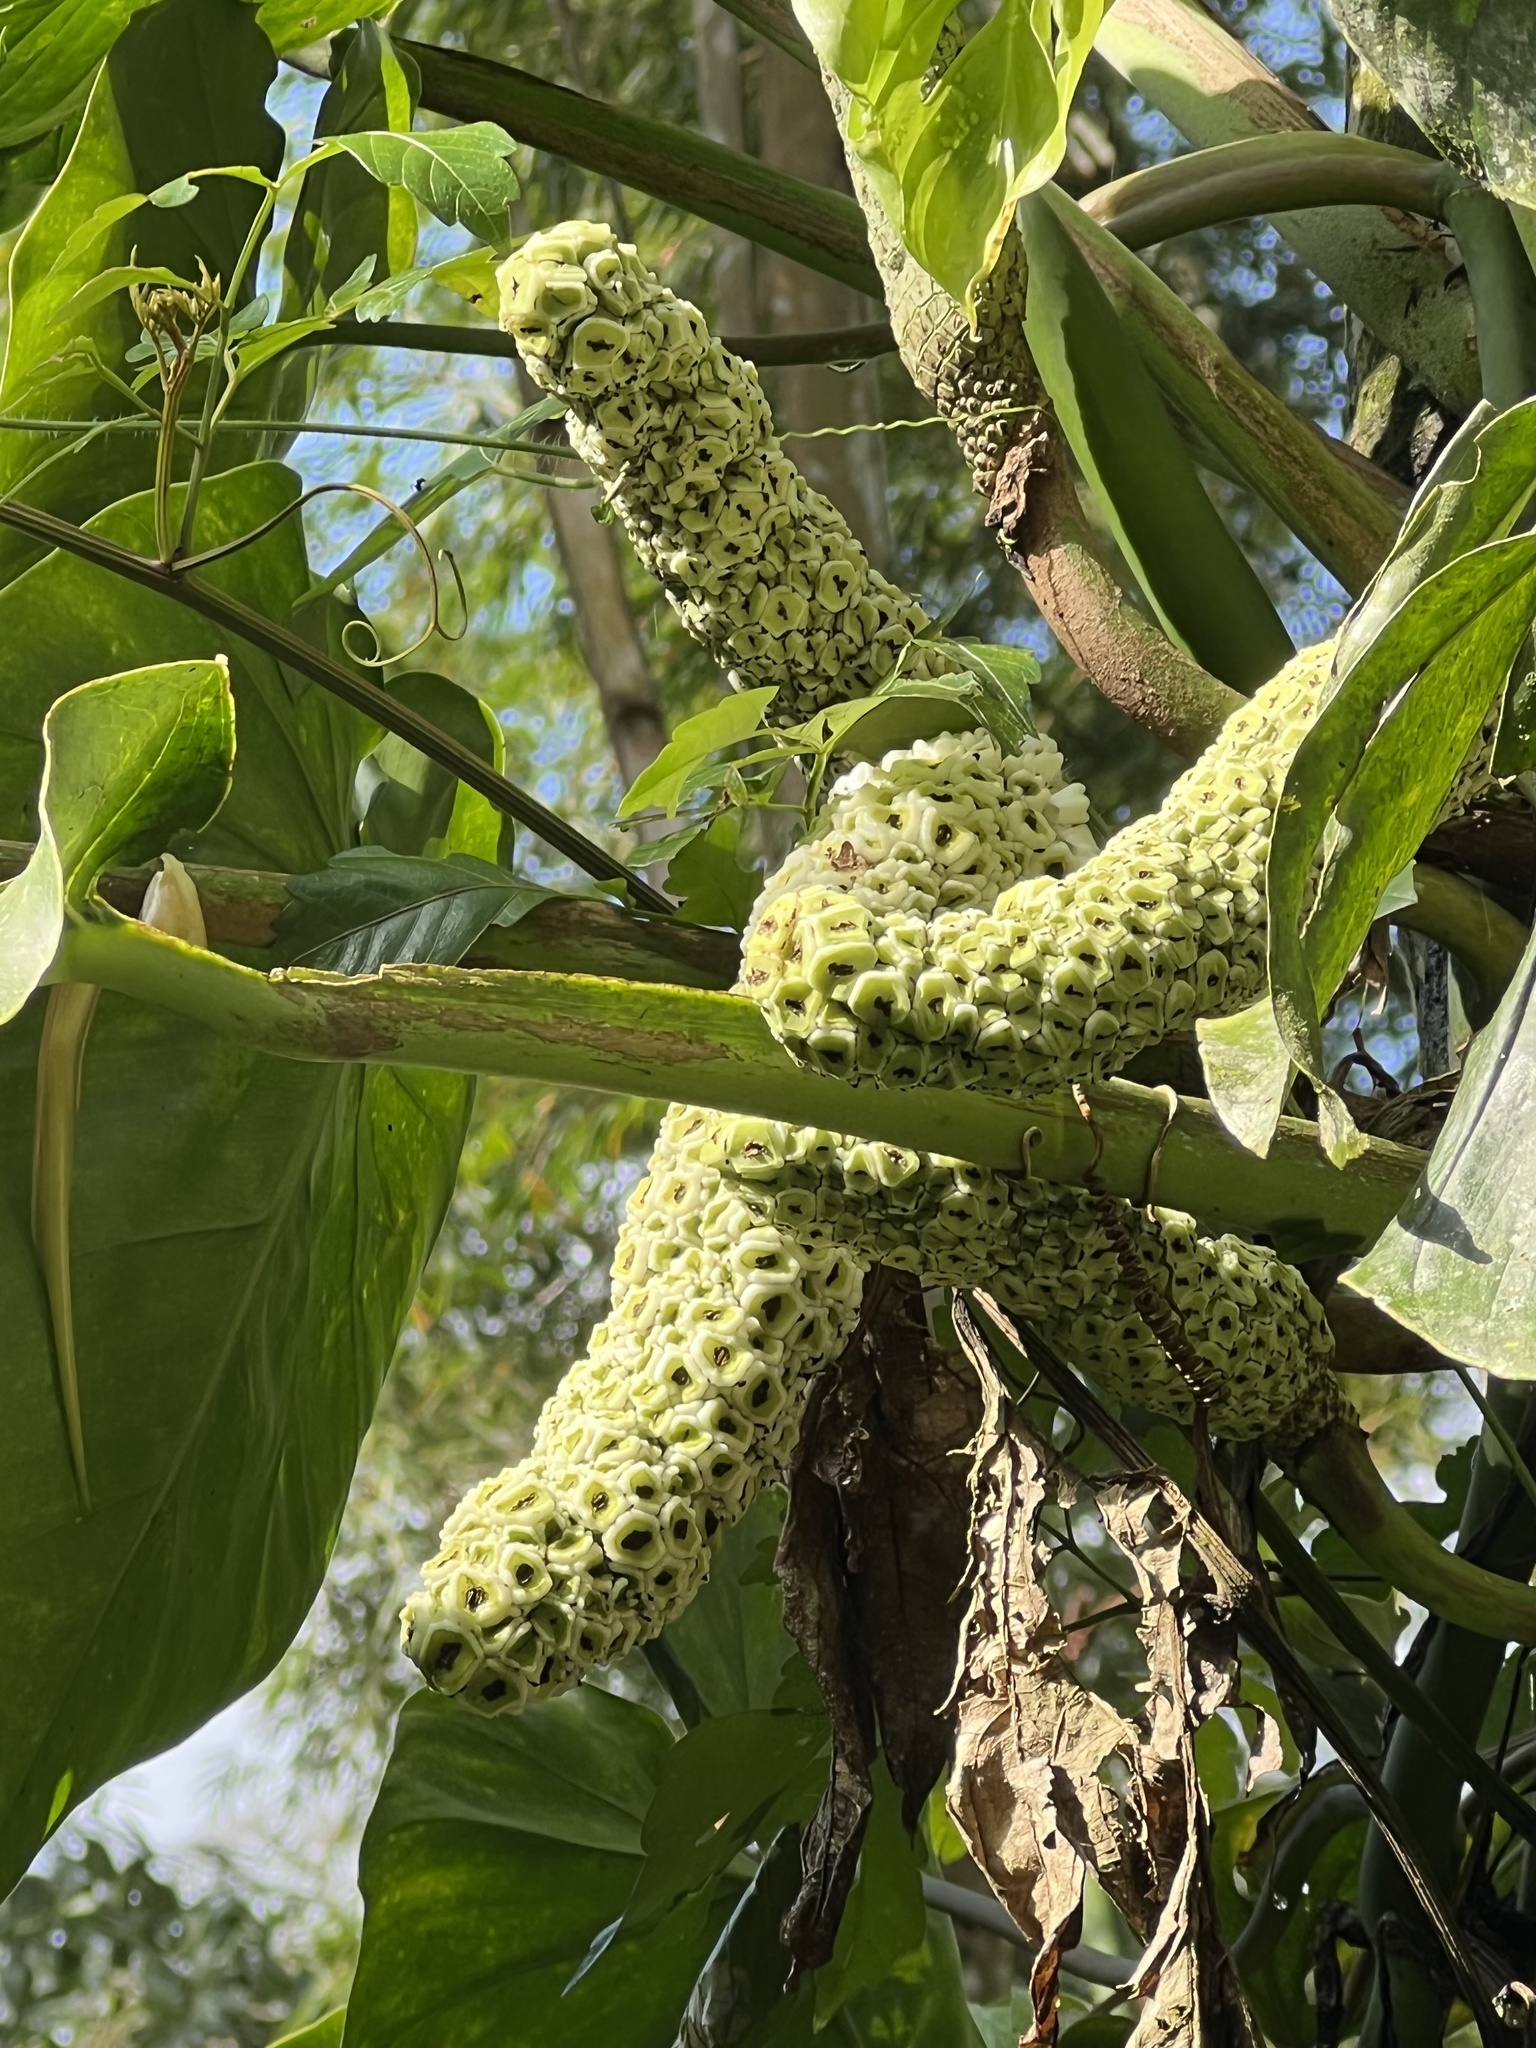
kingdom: Plantae
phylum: Tracheophyta
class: Liliopsida
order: Alismatales
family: Araceae
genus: Monstera
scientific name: Monstera adansonii
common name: Tarovine
